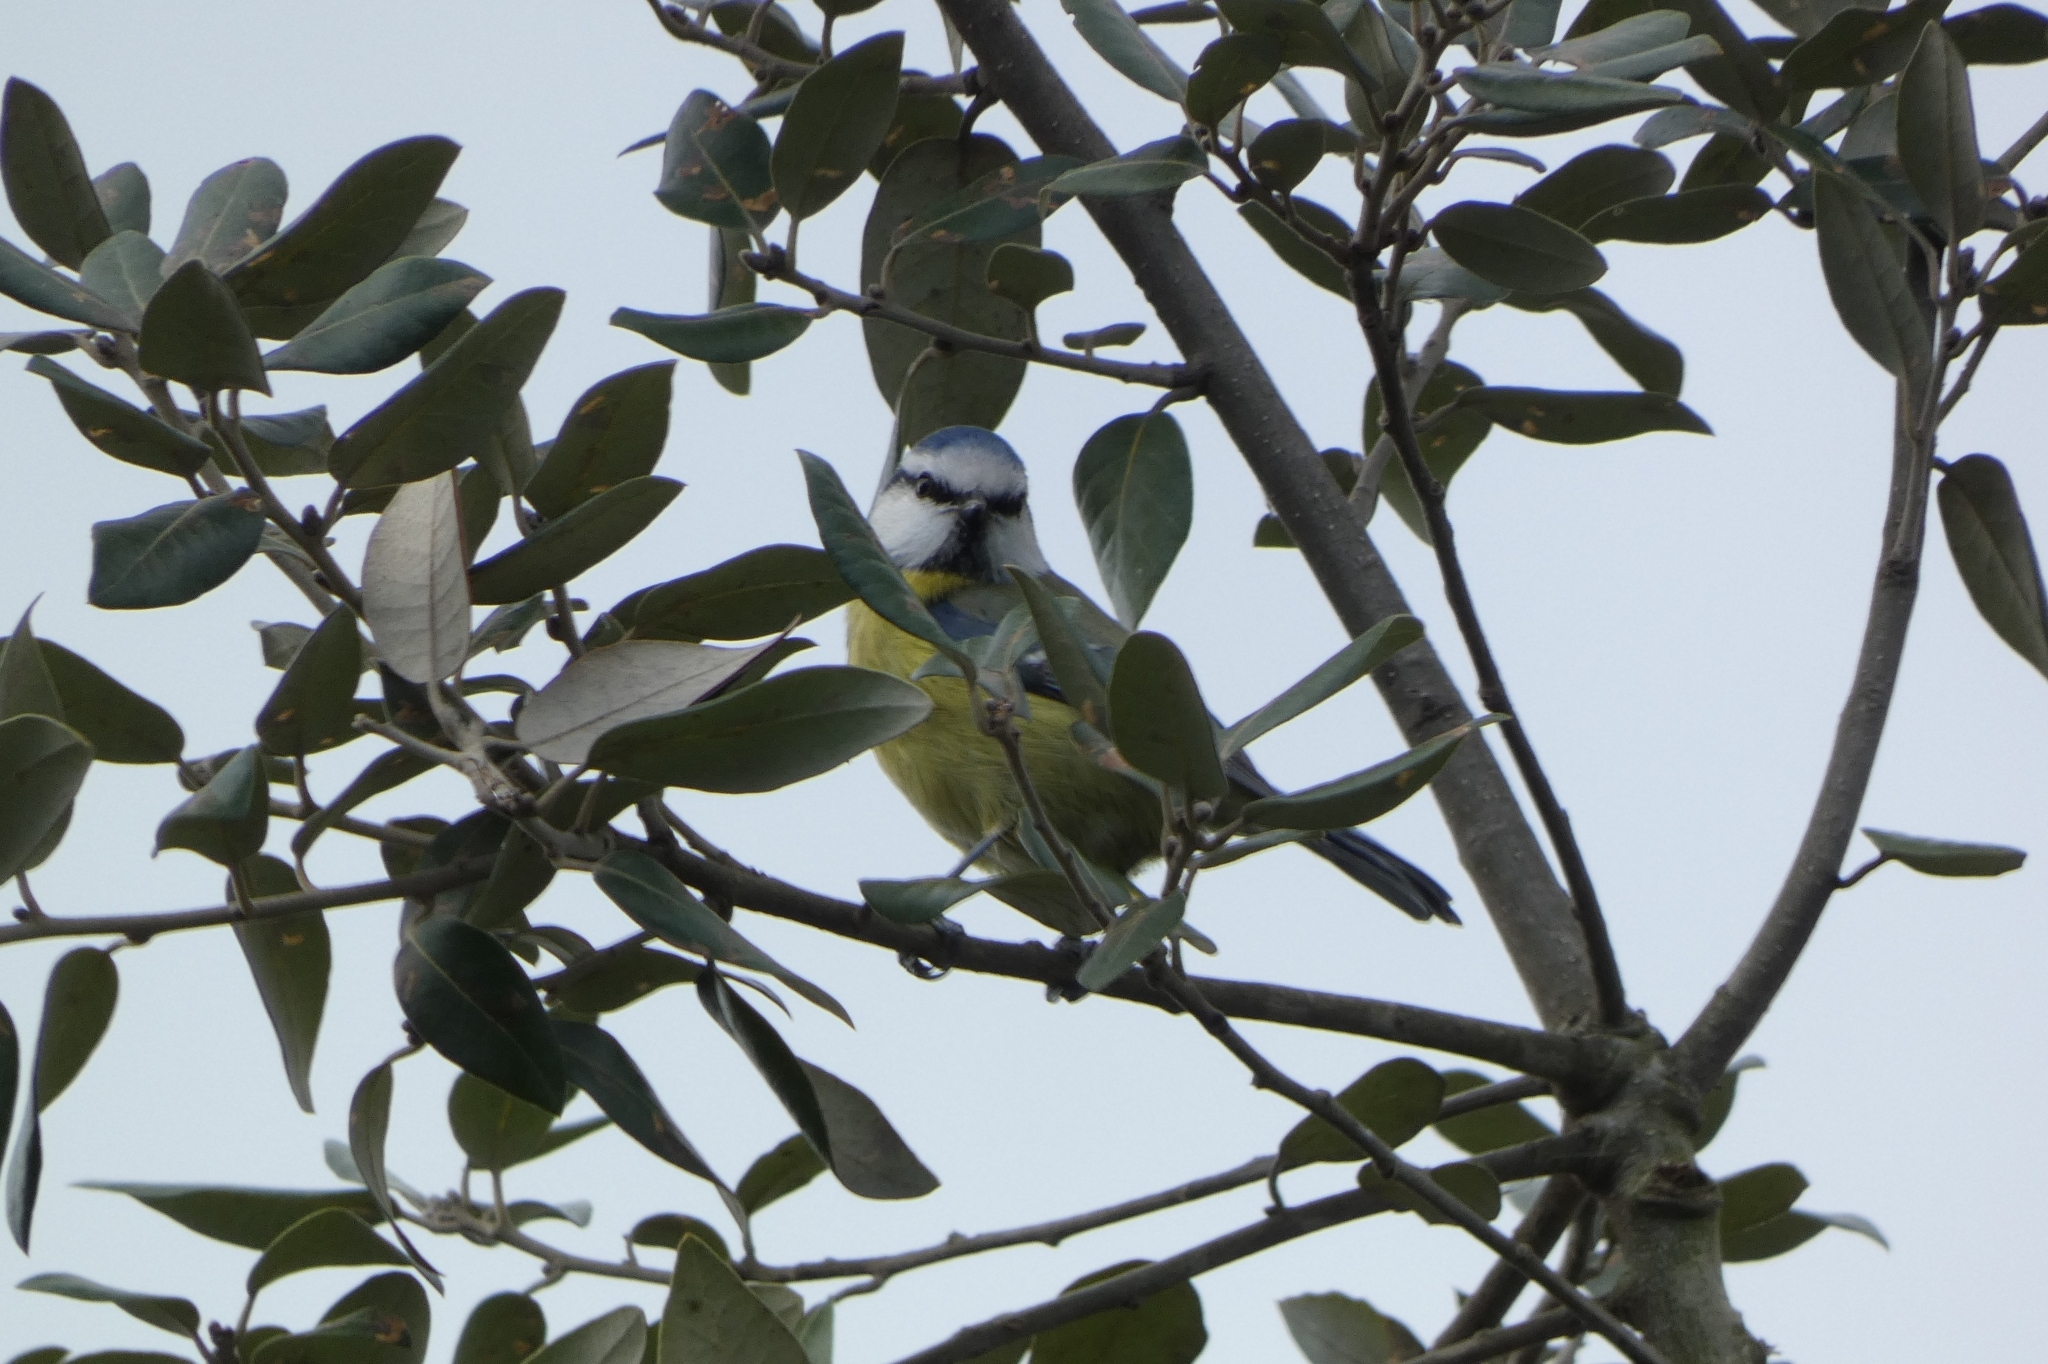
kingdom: Animalia
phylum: Chordata
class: Aves
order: Passeriformes
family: Paridae
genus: Cyanistes
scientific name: Cyanistes caeruleus
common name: Eurasian blue tit
